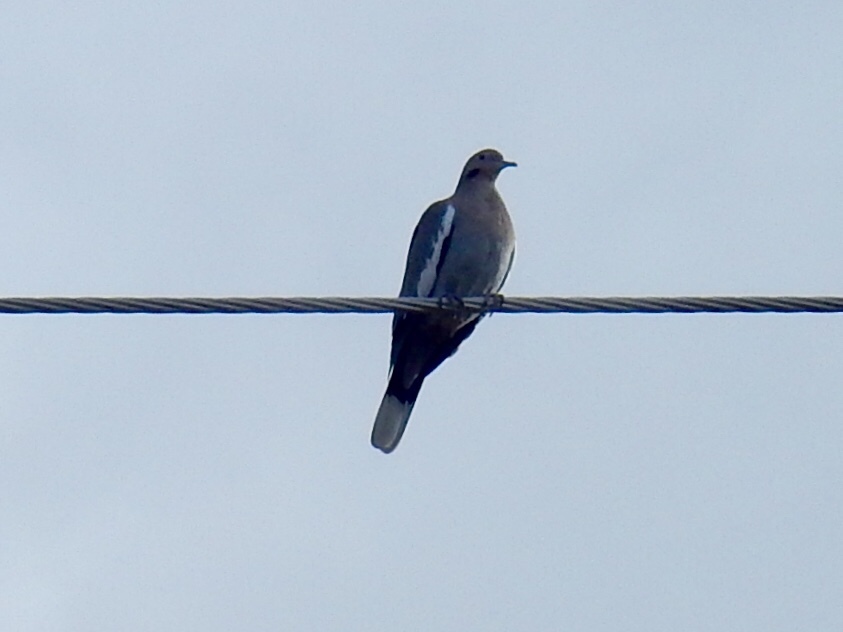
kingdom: Animalia
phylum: Chordata
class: Aves
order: Columbiformes
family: Columbidae
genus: Zenaida
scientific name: Zenaida asiatica
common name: White-winged dove
